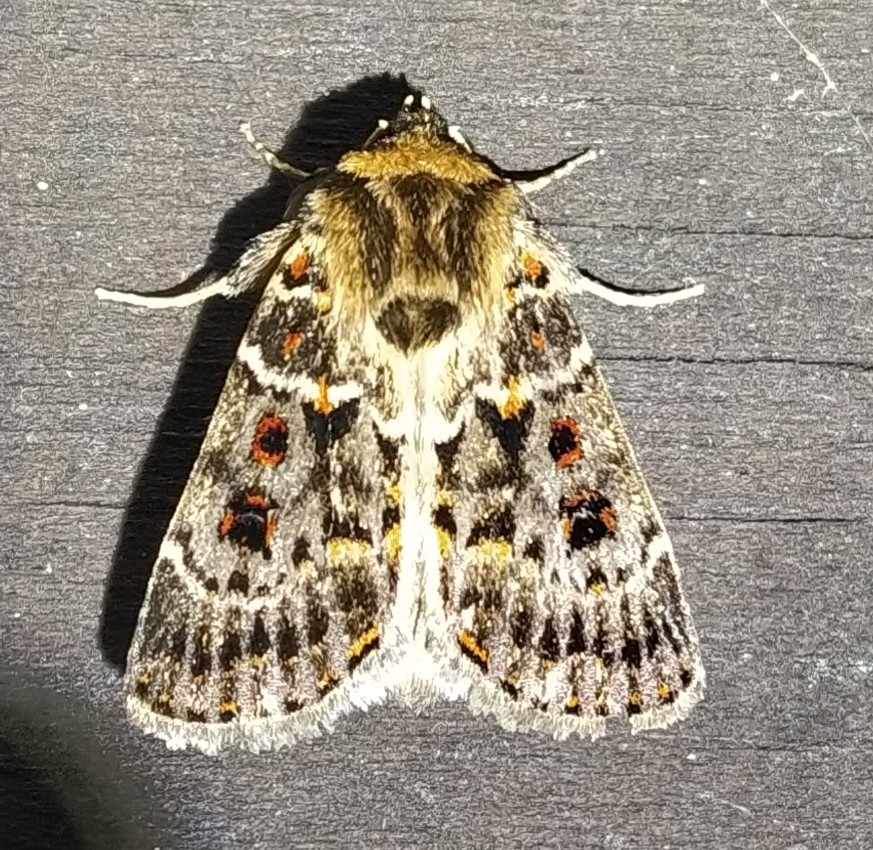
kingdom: Animalia
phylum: Arthropoda
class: Insecta
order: Lepidoptera
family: Noctuidae
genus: Proteuxoa
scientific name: Proteuxoa sanguinipuncta
